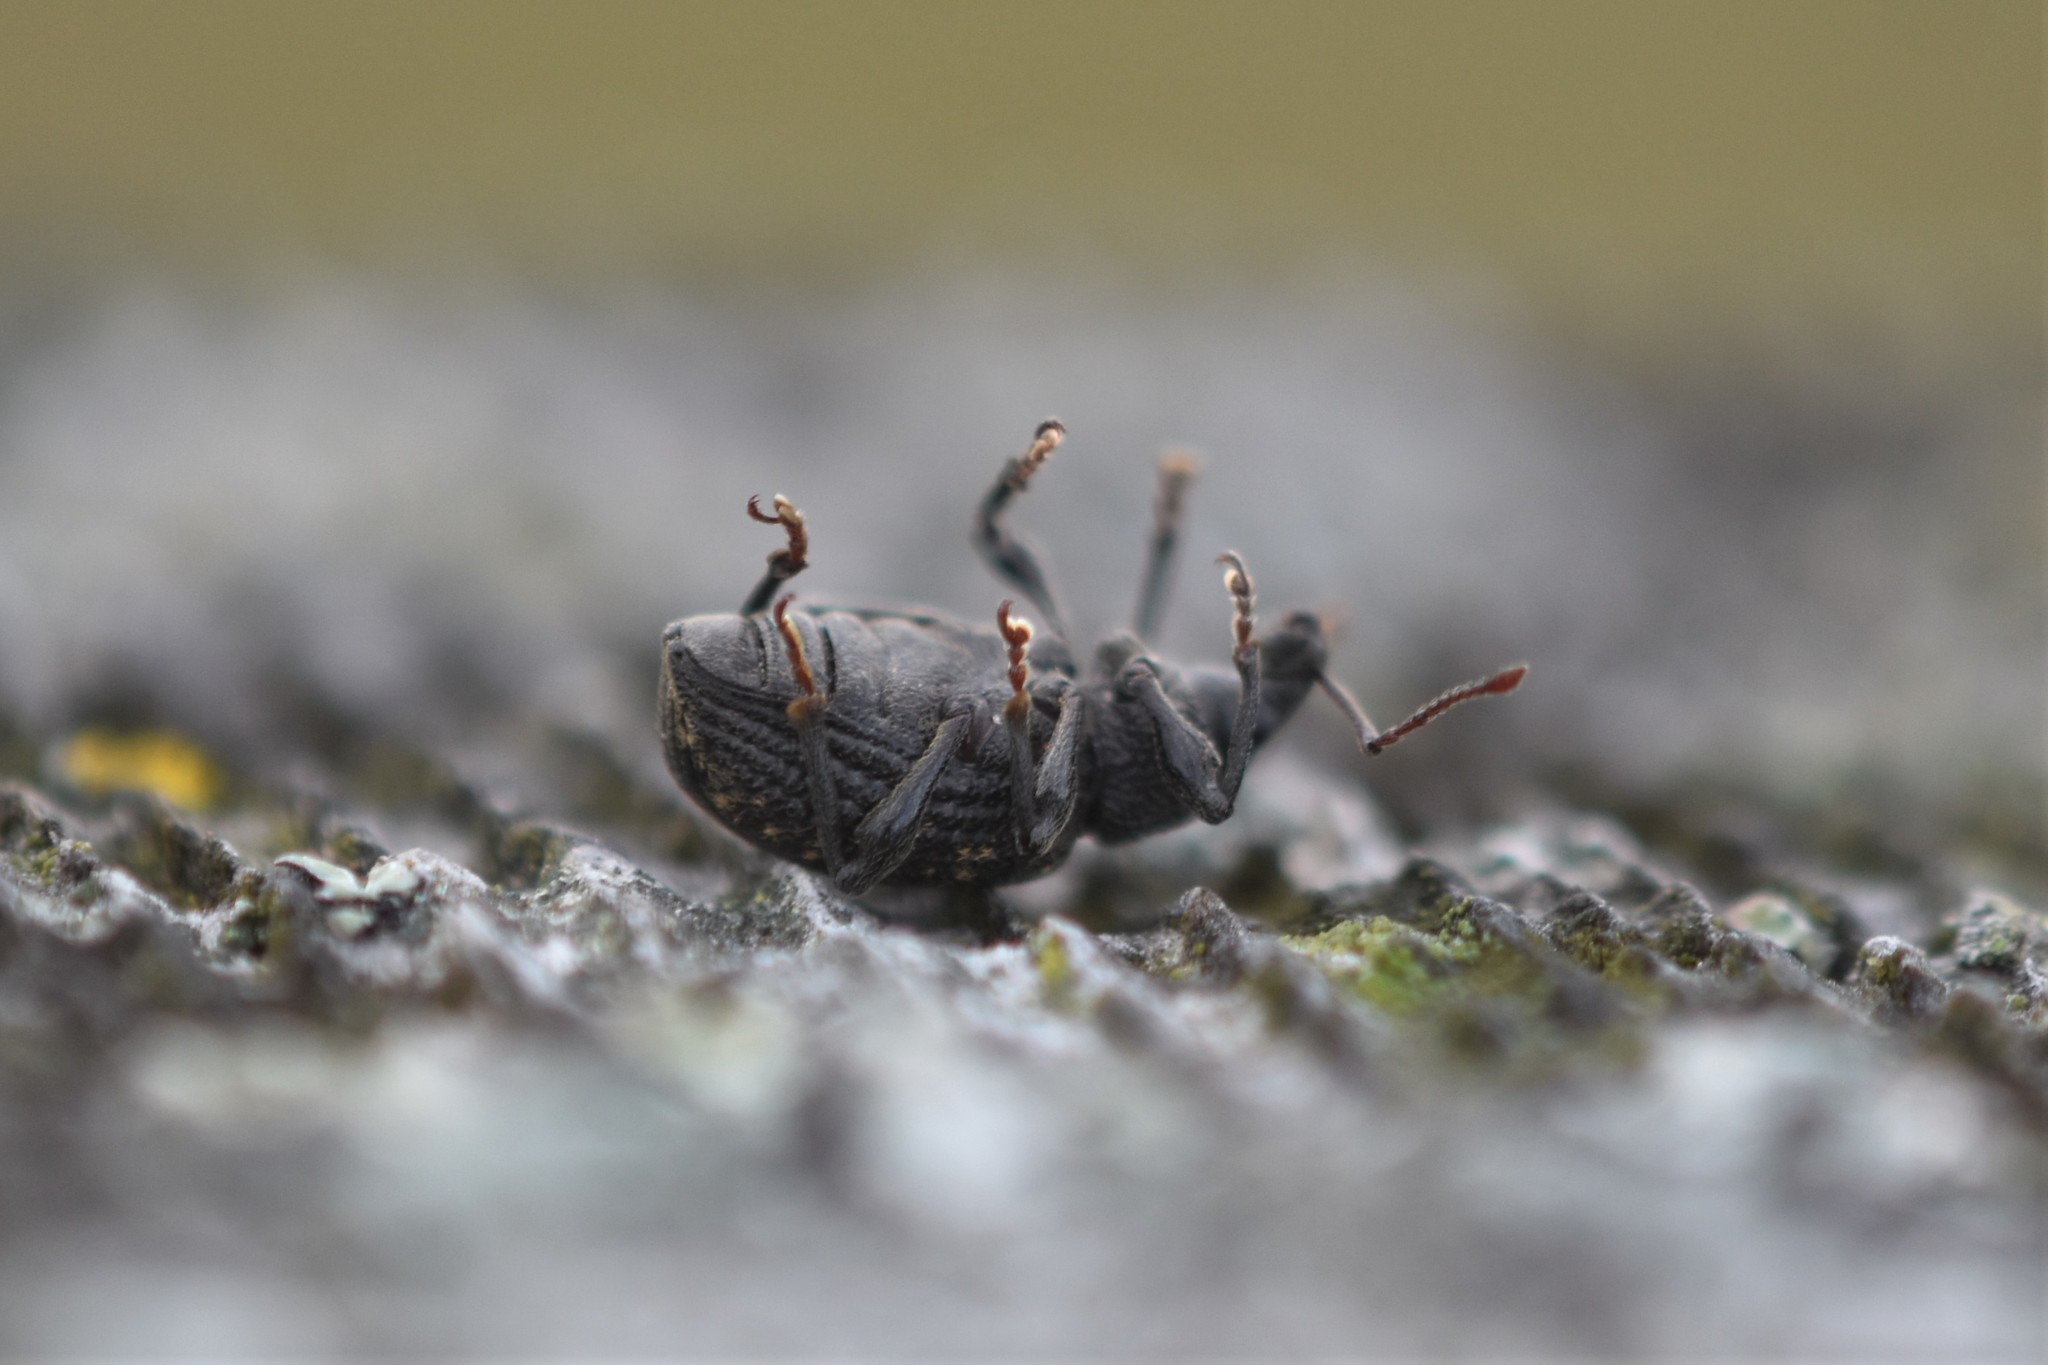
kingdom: Animalia
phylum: Arthropoda
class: Insecta
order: Coleoptera
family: Curculionidae
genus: Otiorhynchus
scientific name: Otiorhynchus sulcatus
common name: Black vine weevil
